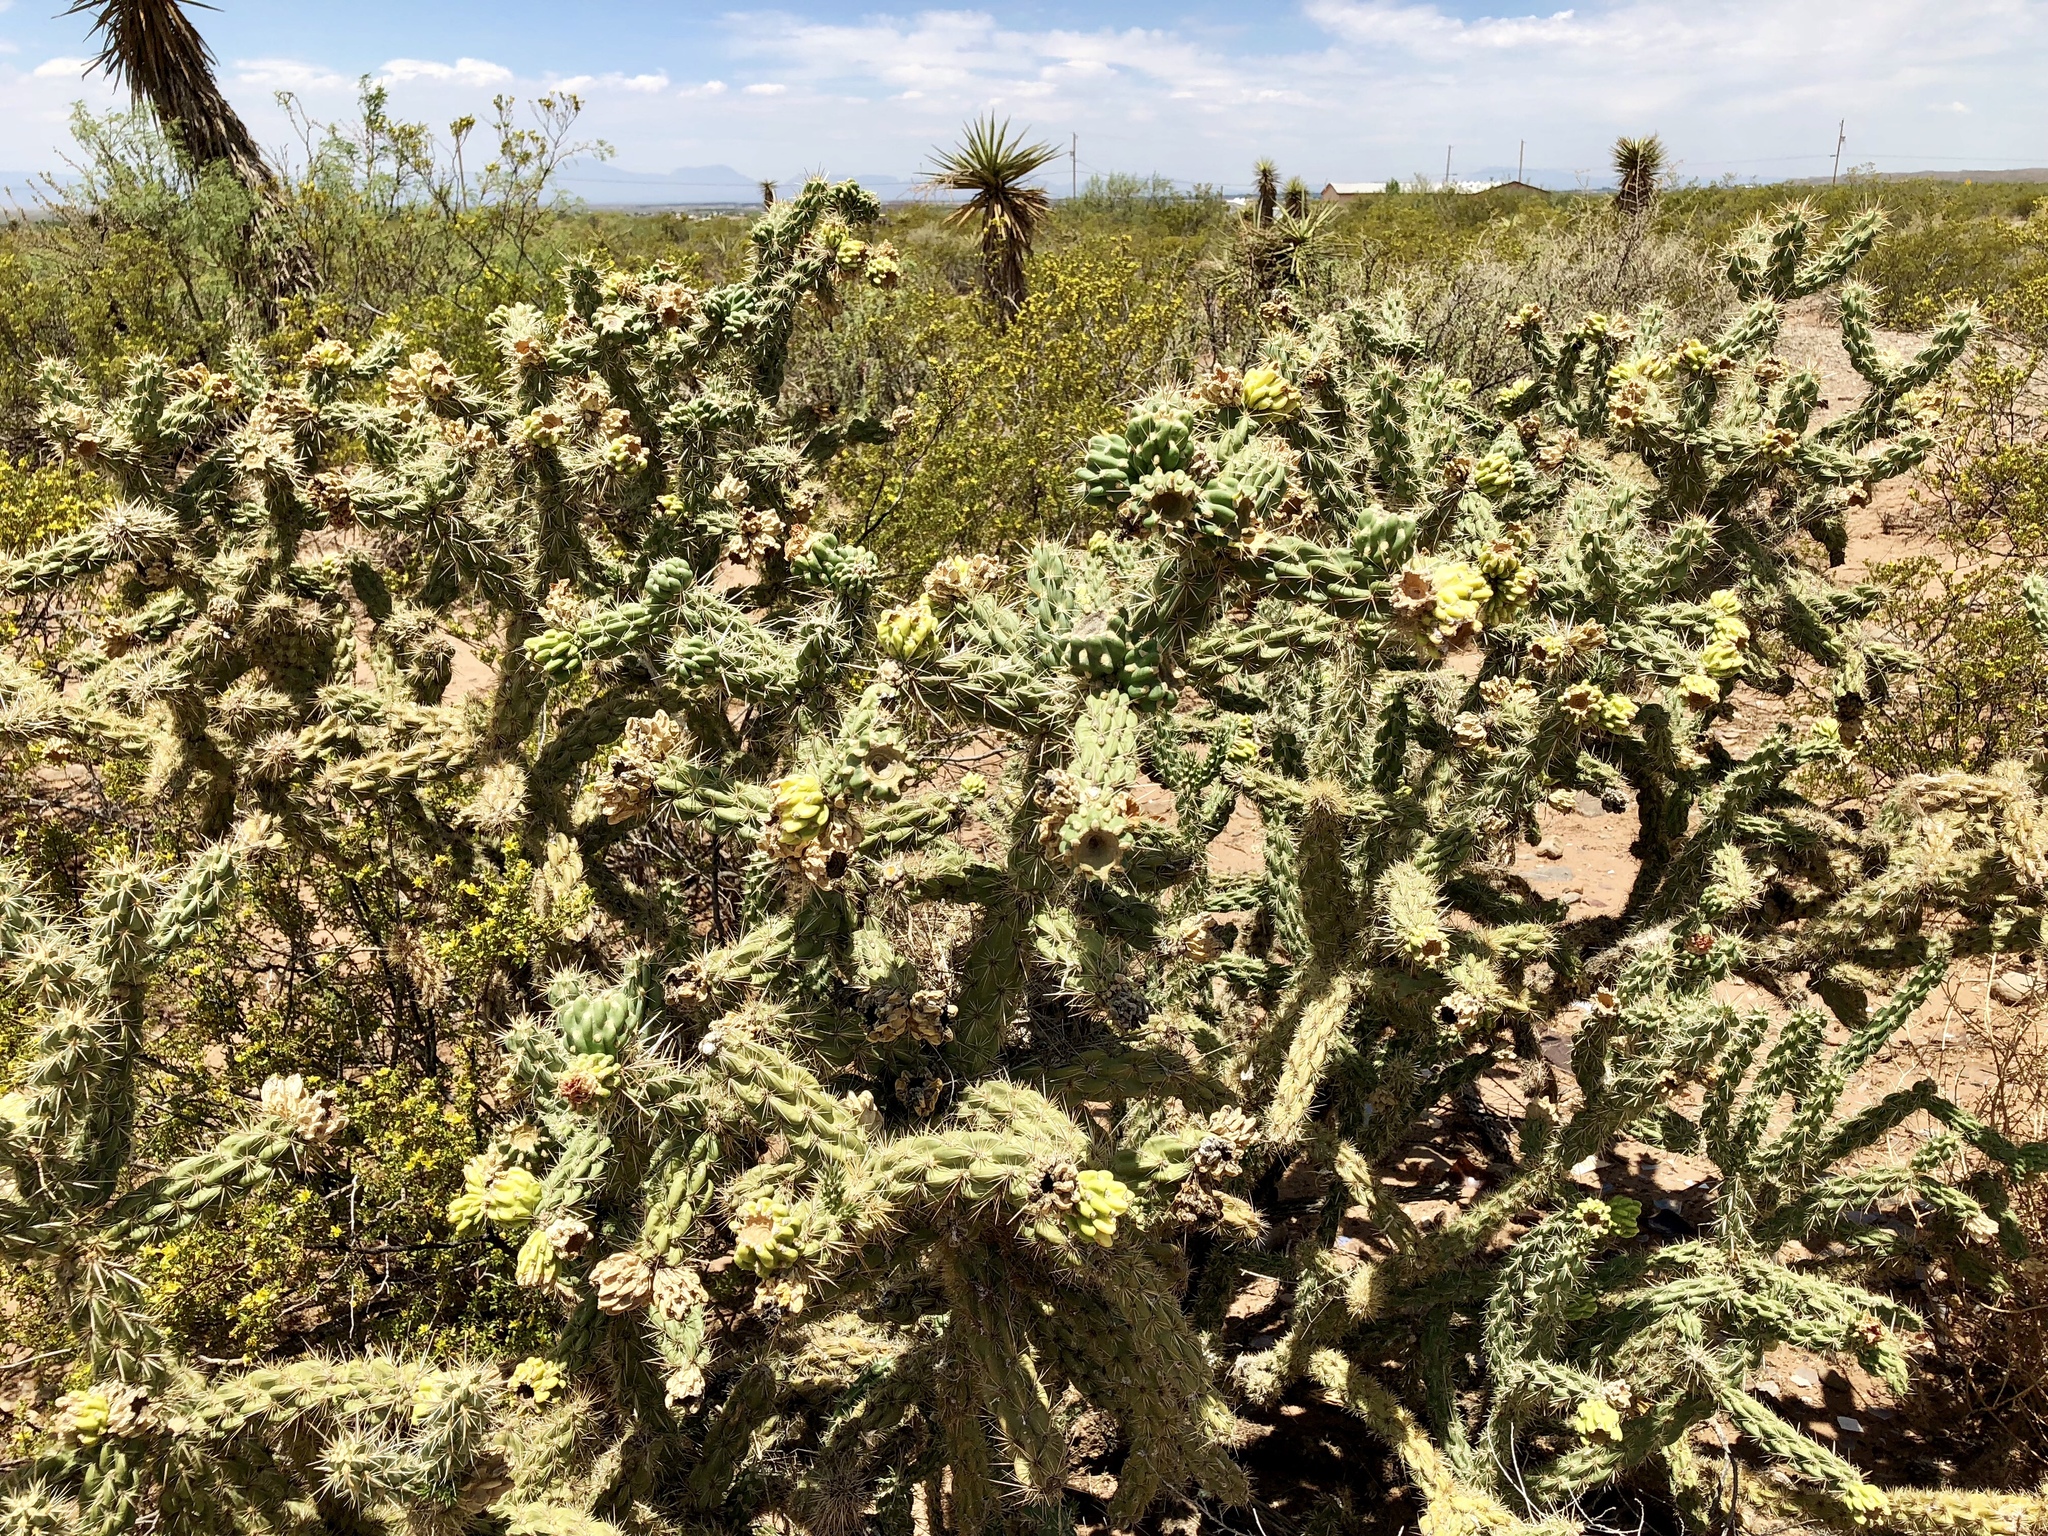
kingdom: Plantae
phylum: Tracheophyta
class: Magnoliopsida
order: Caryophyllales
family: Cactaceae
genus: Cylindropuntia
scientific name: Cylindropuntia imbricata
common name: Candelabrum cactus
